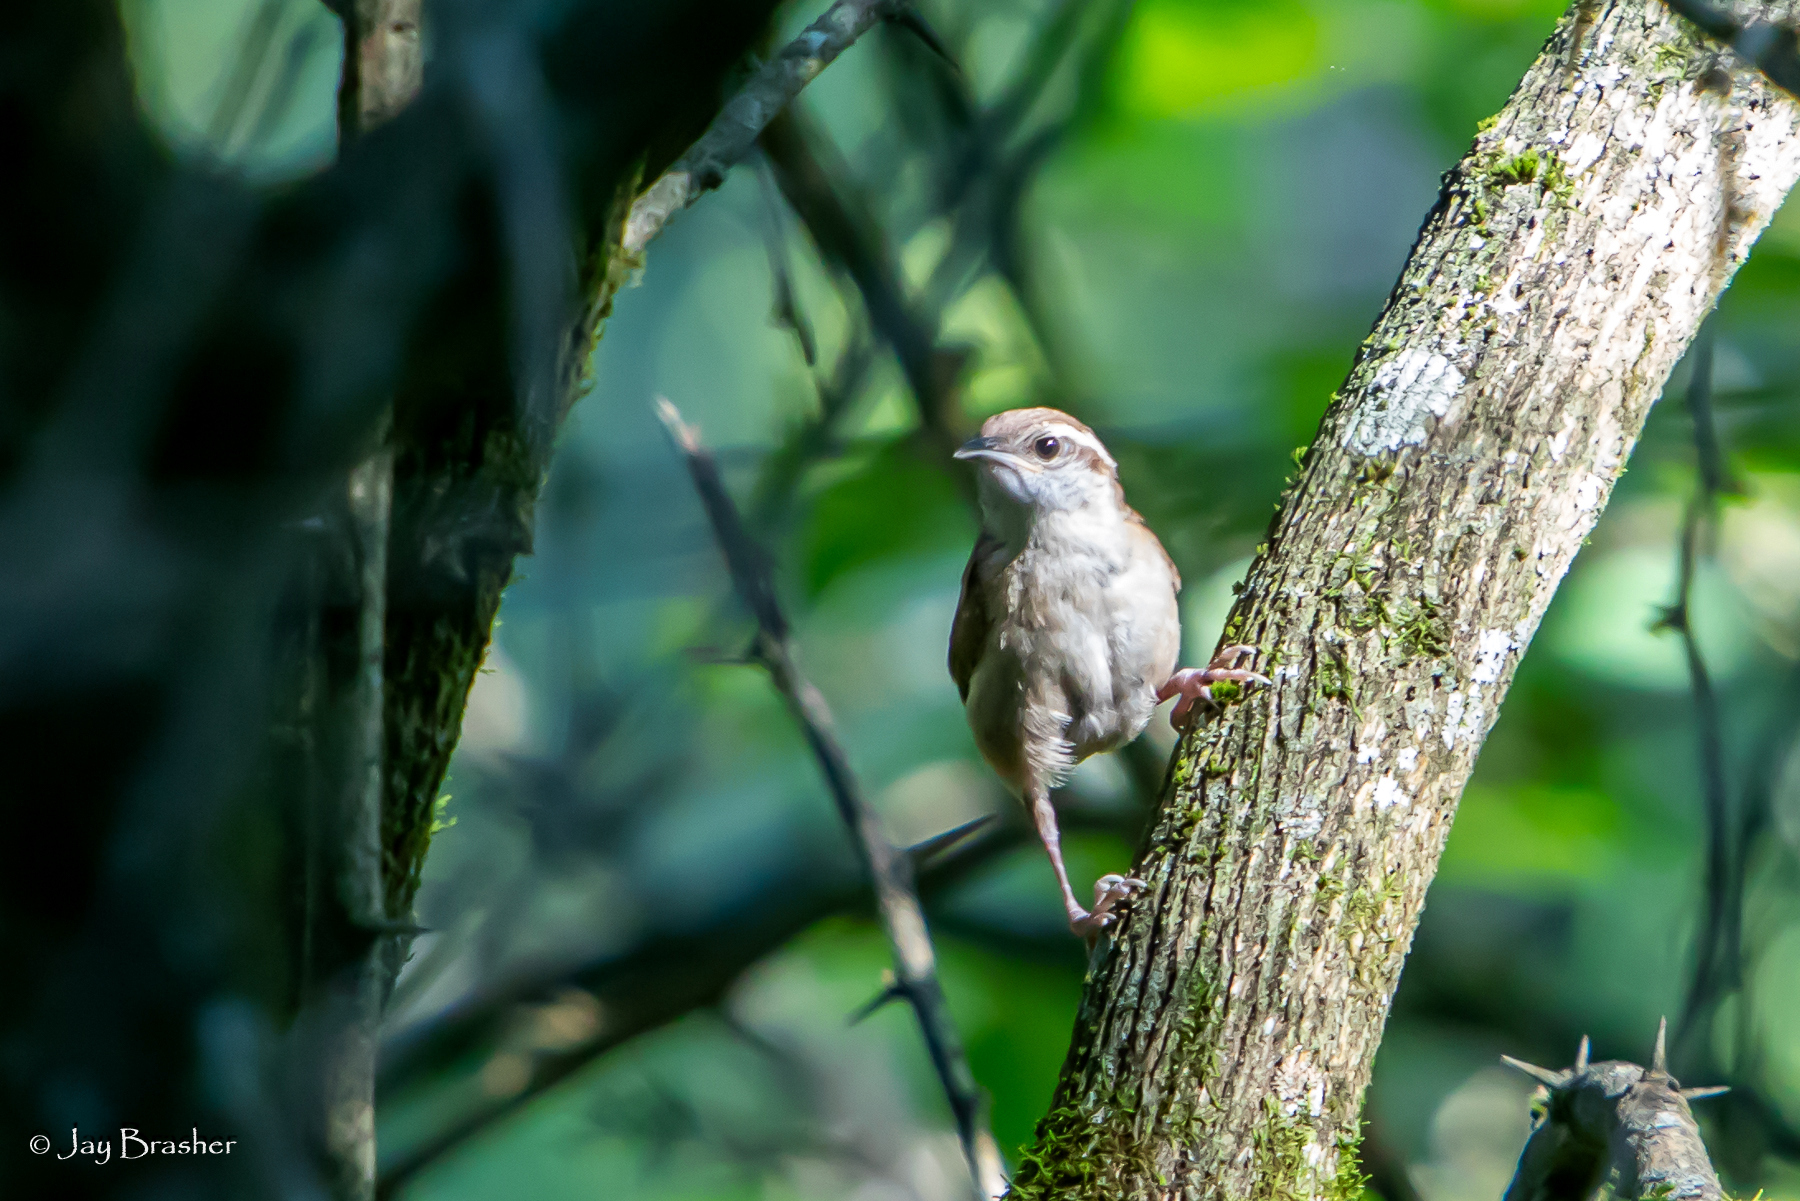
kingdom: Animalia
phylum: Chordata
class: Aves
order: Passeriformes
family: Troglodytidae
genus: Thryothorus
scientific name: Thryothorus ludovicianus
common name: Carolina wren
